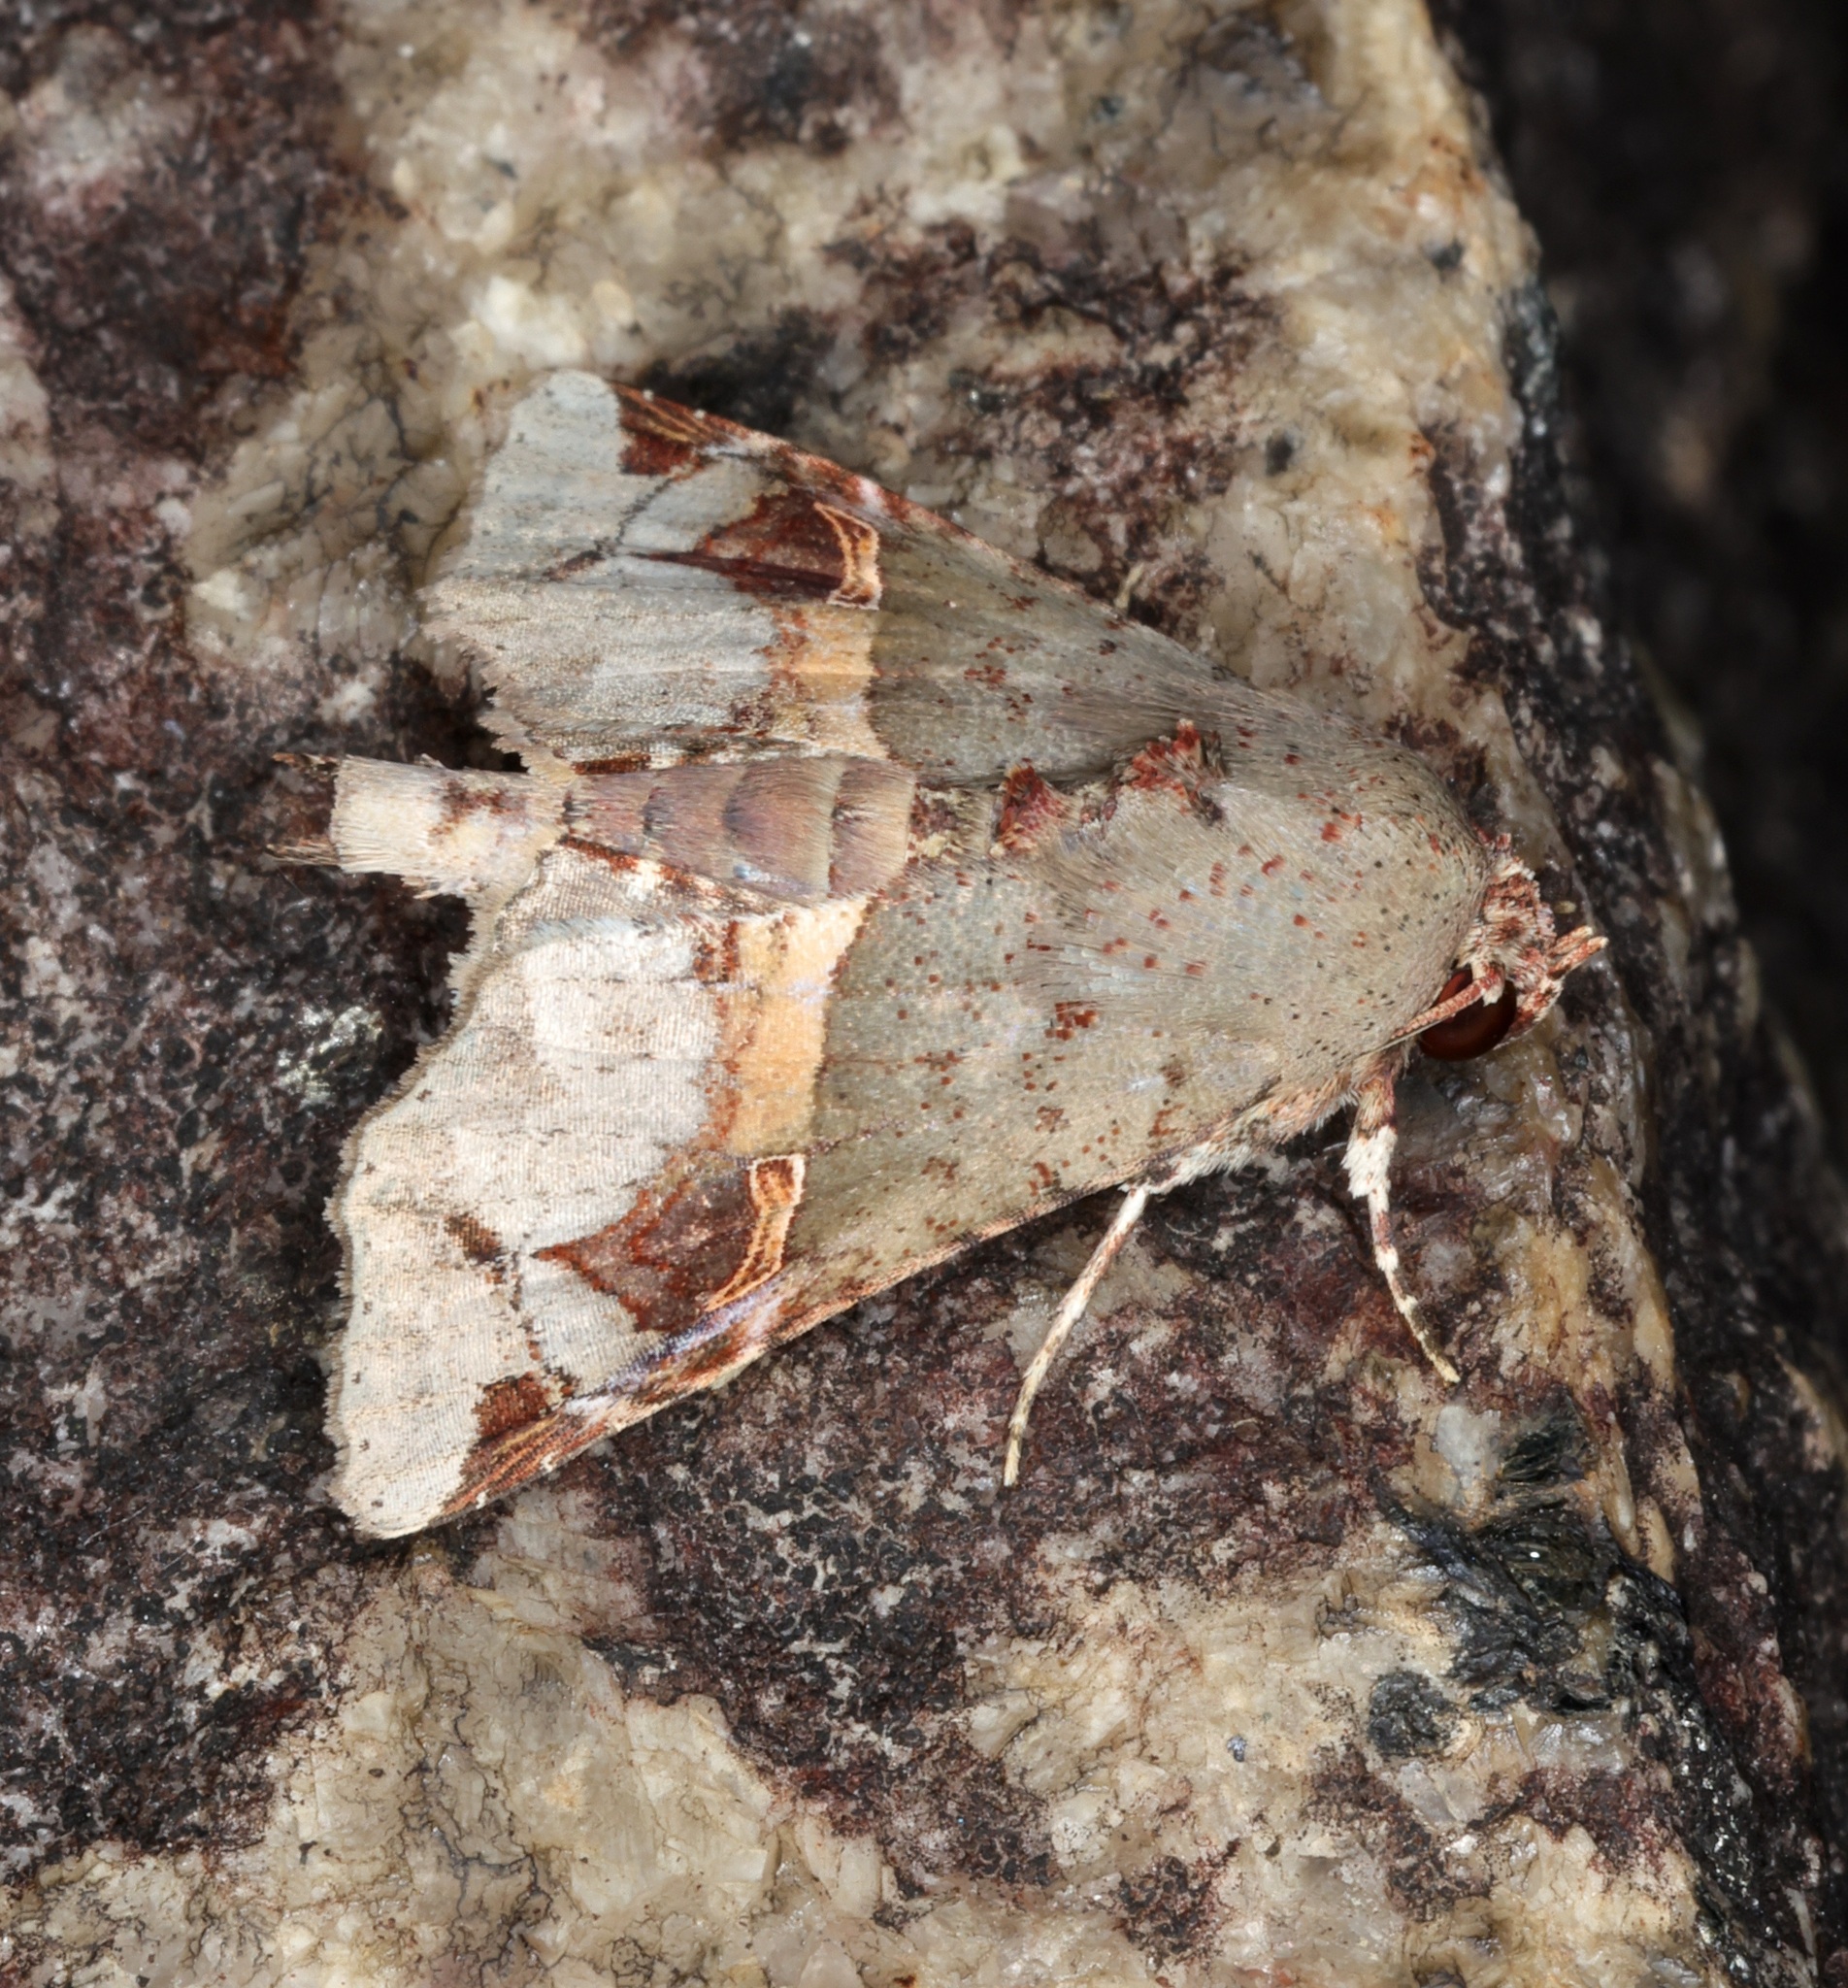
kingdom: Animalia
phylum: Arthropoda
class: Insecta
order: Lepidoptera
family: Euteliidae
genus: Targalla
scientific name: Targalla silvicola
